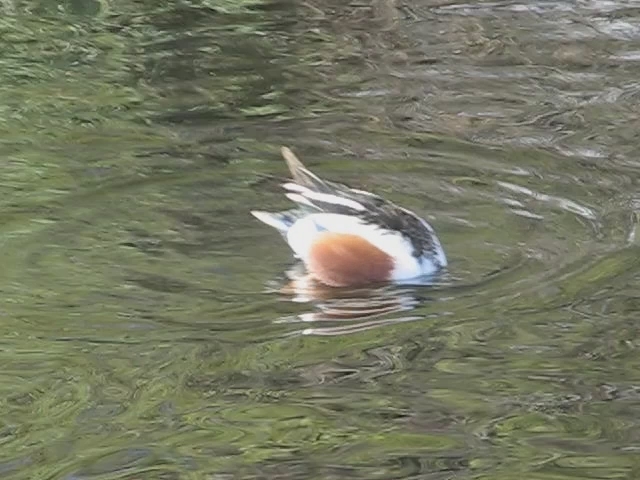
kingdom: Animalia
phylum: Chordata
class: Aves
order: Anseriformes
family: Anatidae
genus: Spatula
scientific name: Spatula clypeata
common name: Northern shoveler
